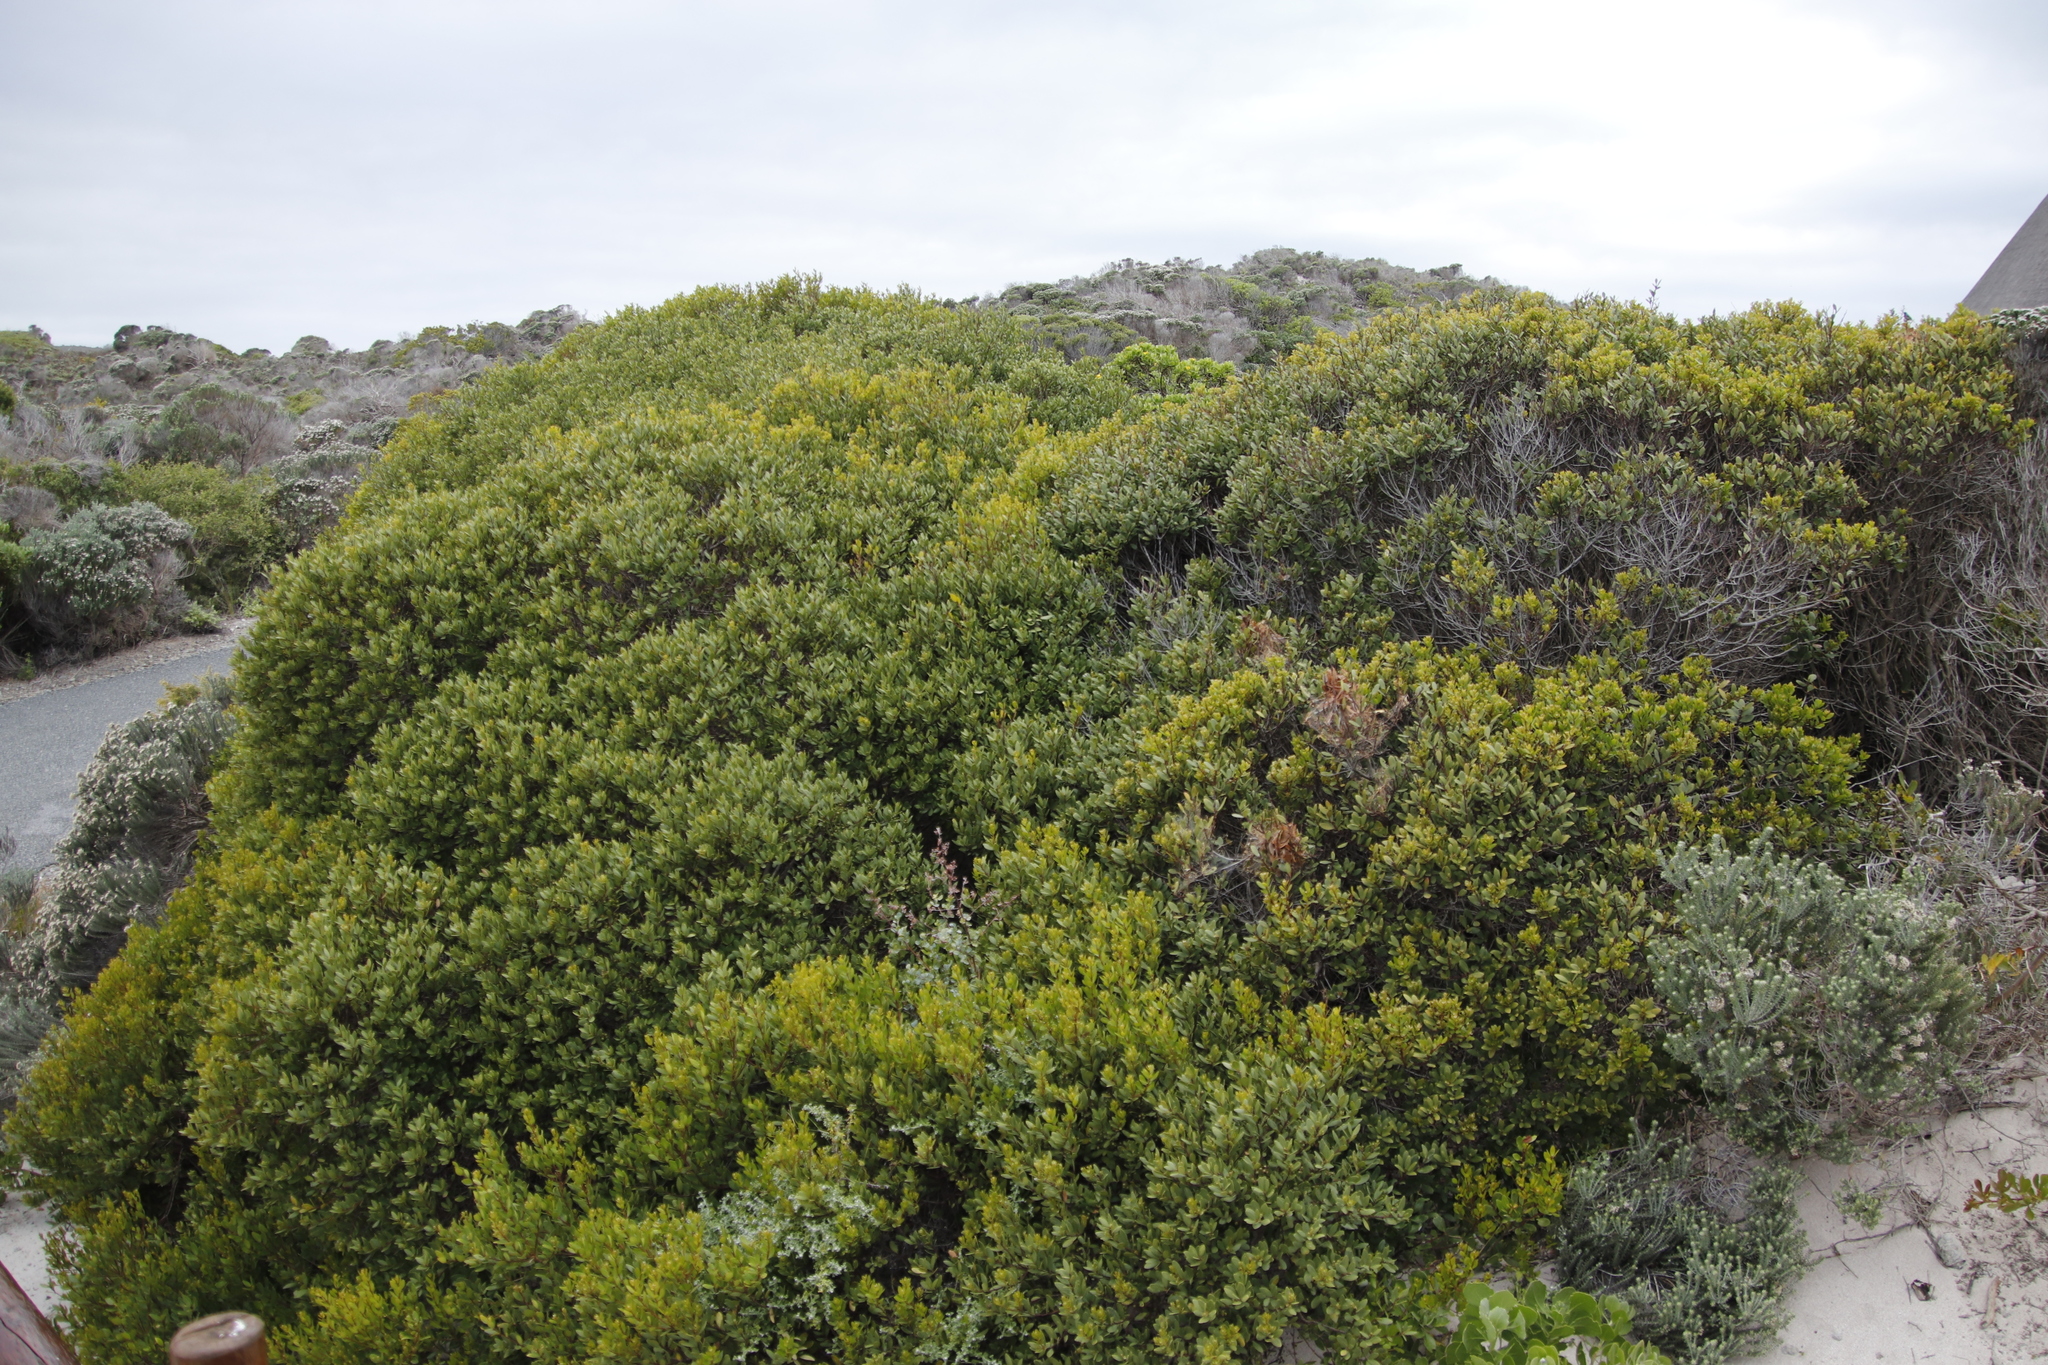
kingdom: Plantae
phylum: Tracheophyta
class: Magnoliopsida
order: Ericales
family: Ebenaceae
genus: Euclea
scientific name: Euclea racemosa
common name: Dune guarri
